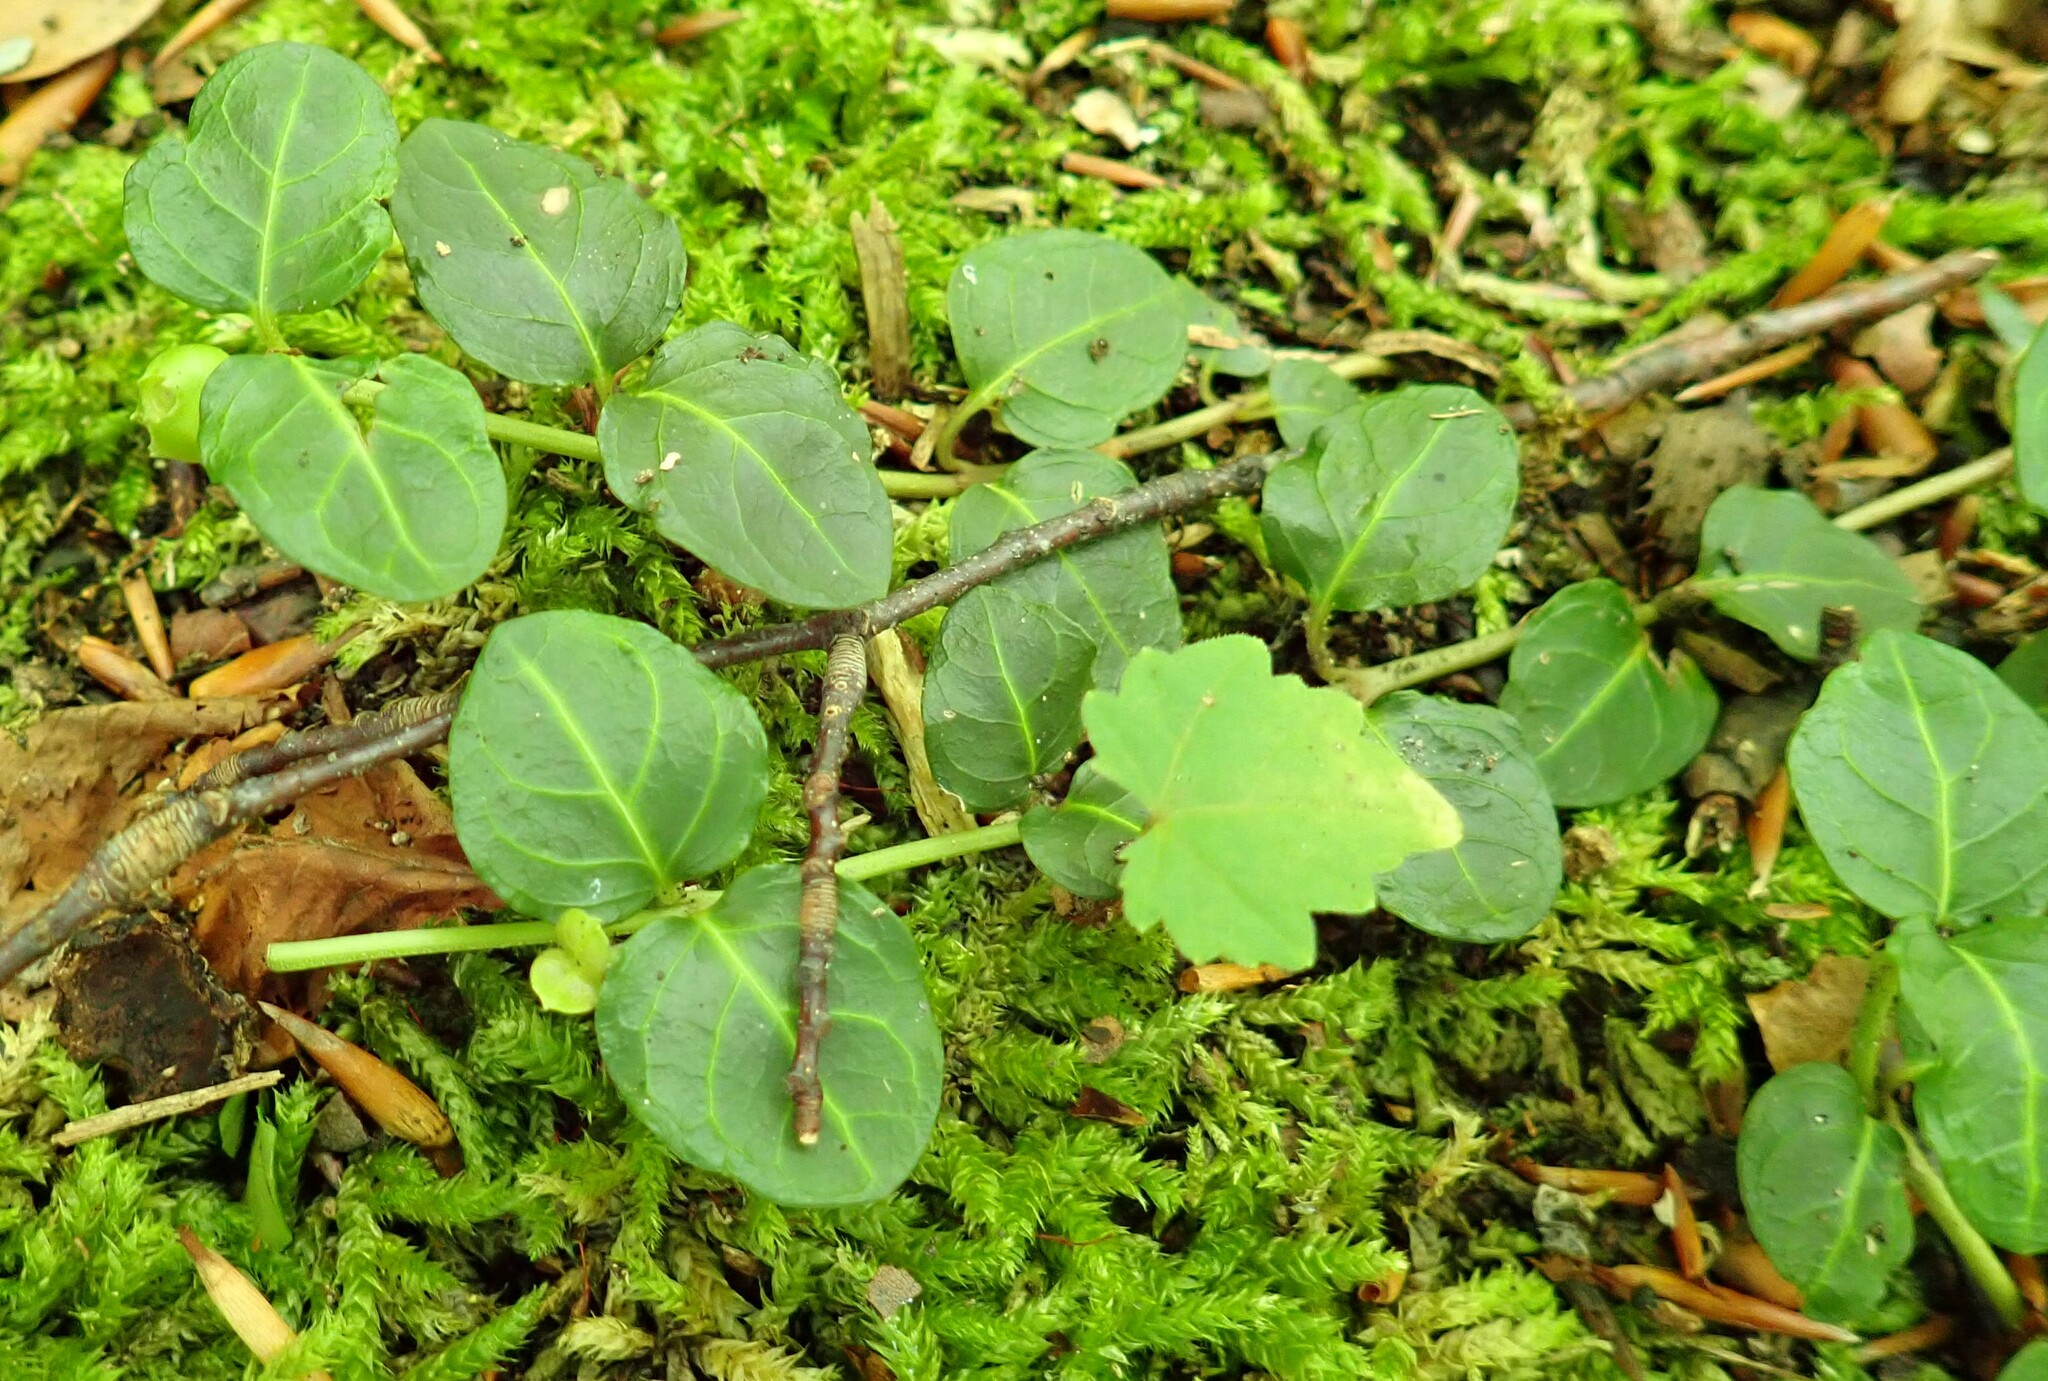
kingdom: Plantae
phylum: Tracheophyta
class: Magnoliopsida
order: Gentianales
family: Rubiaceae
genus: Mitchella
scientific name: Mitchella repens
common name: Partridge-berry
